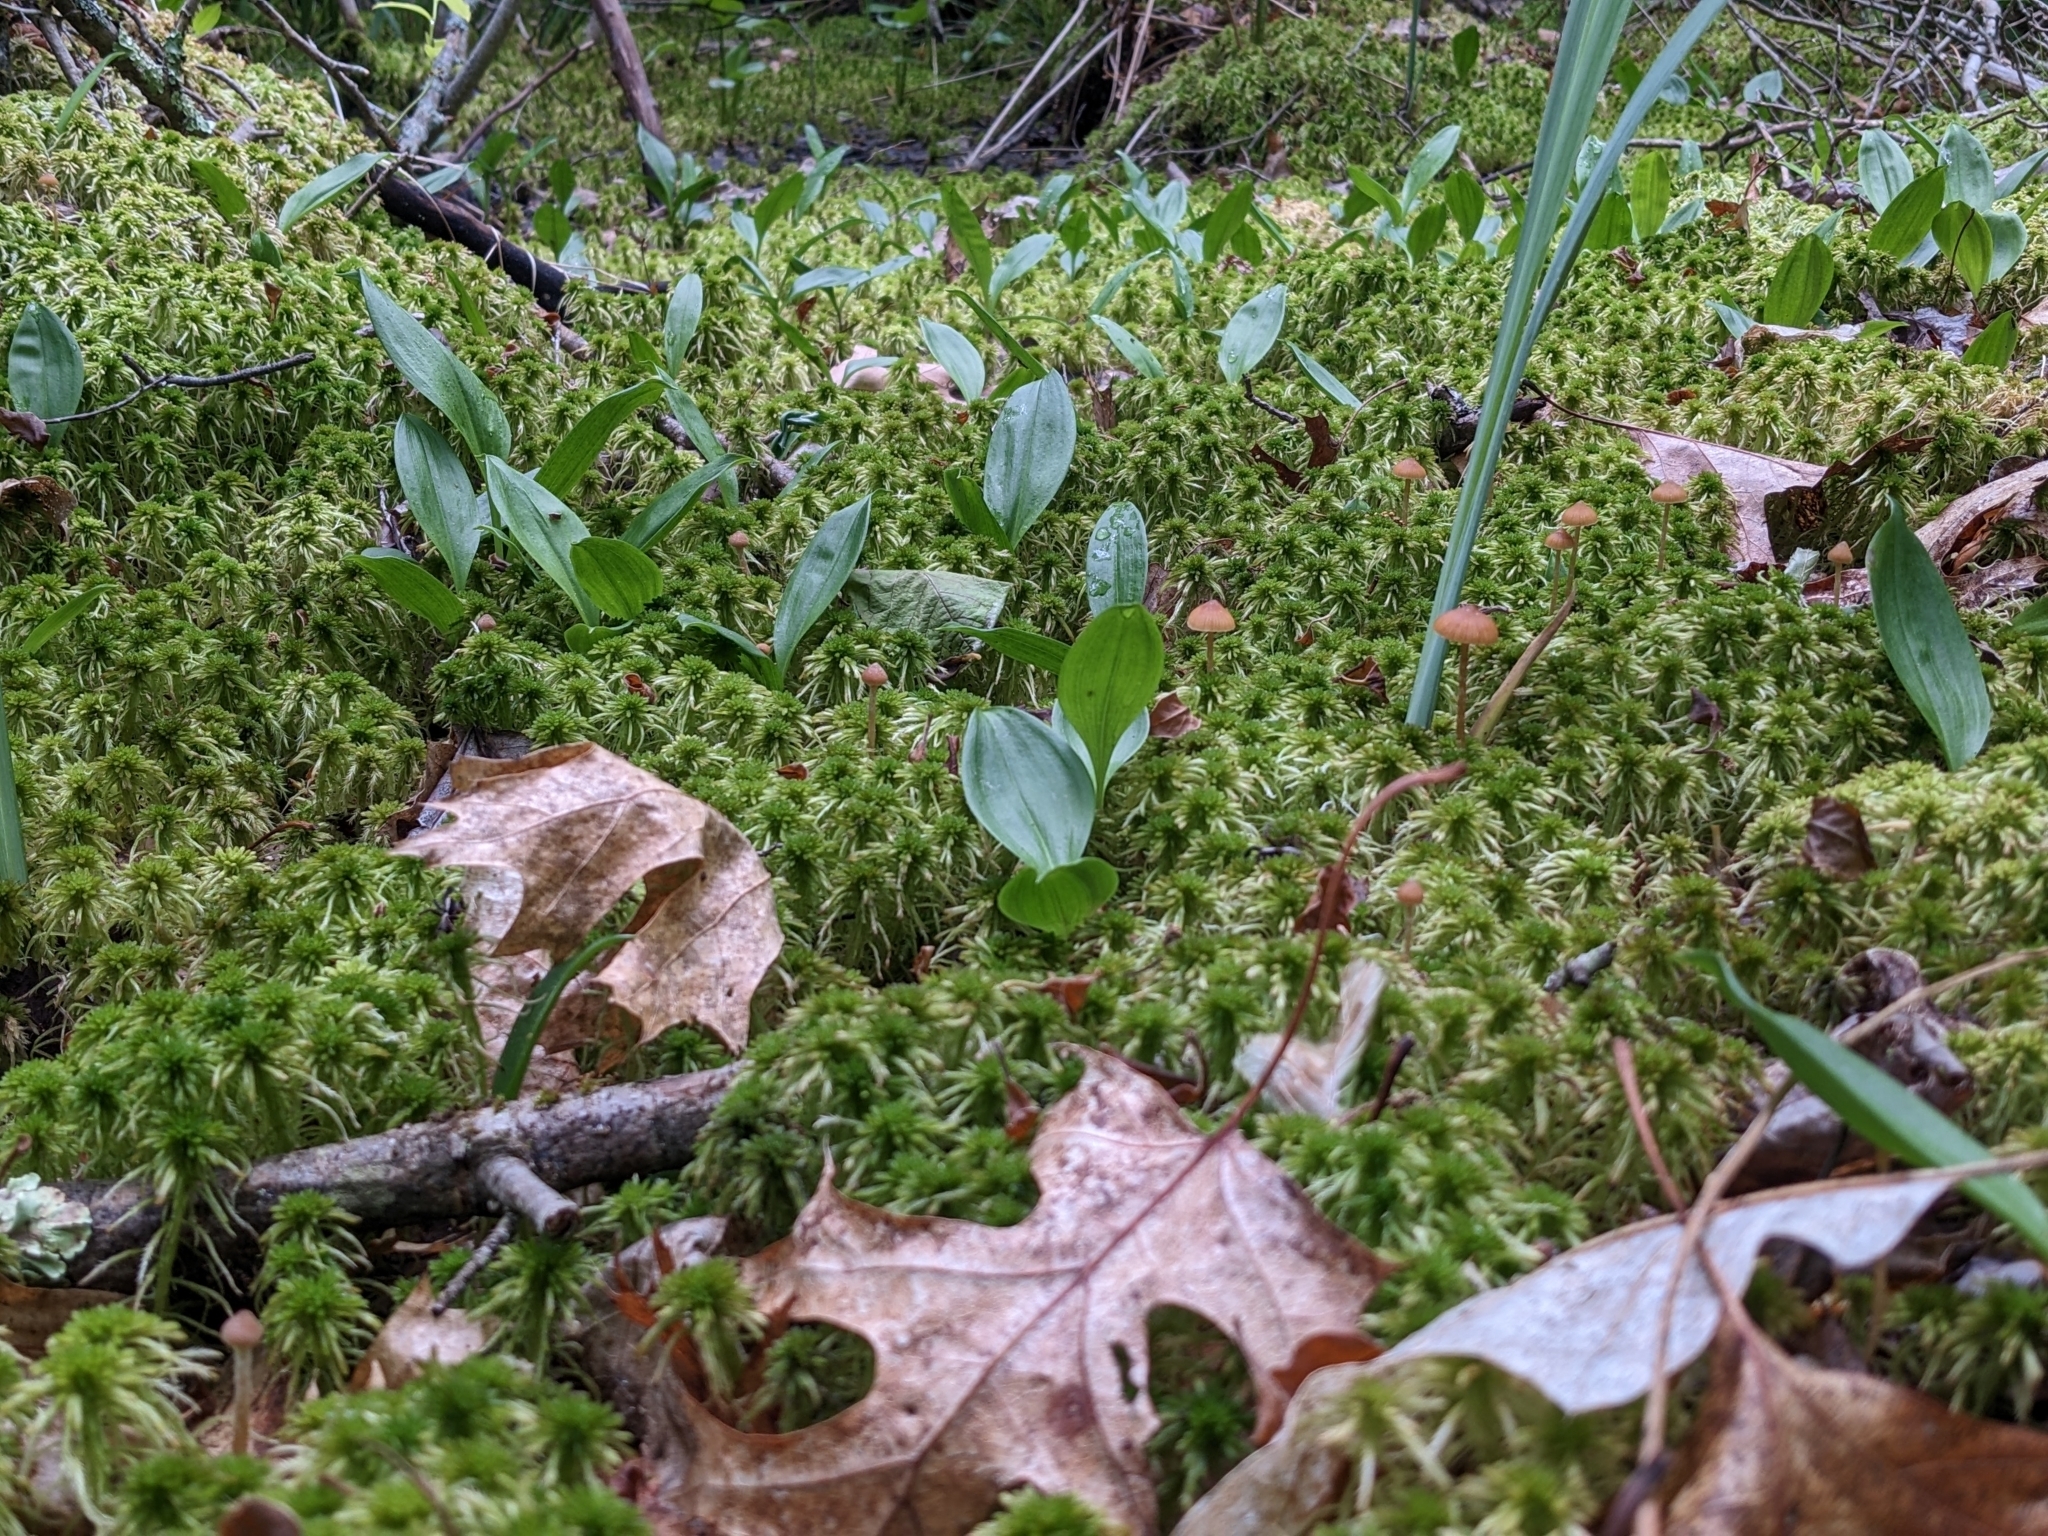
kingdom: Plantae
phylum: Tracheophyta
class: Liliopsida
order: Asparagales
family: Asparagaceae
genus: Maianthemum
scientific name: Maianthemum trifolium
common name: Swamp false solomon's seal
